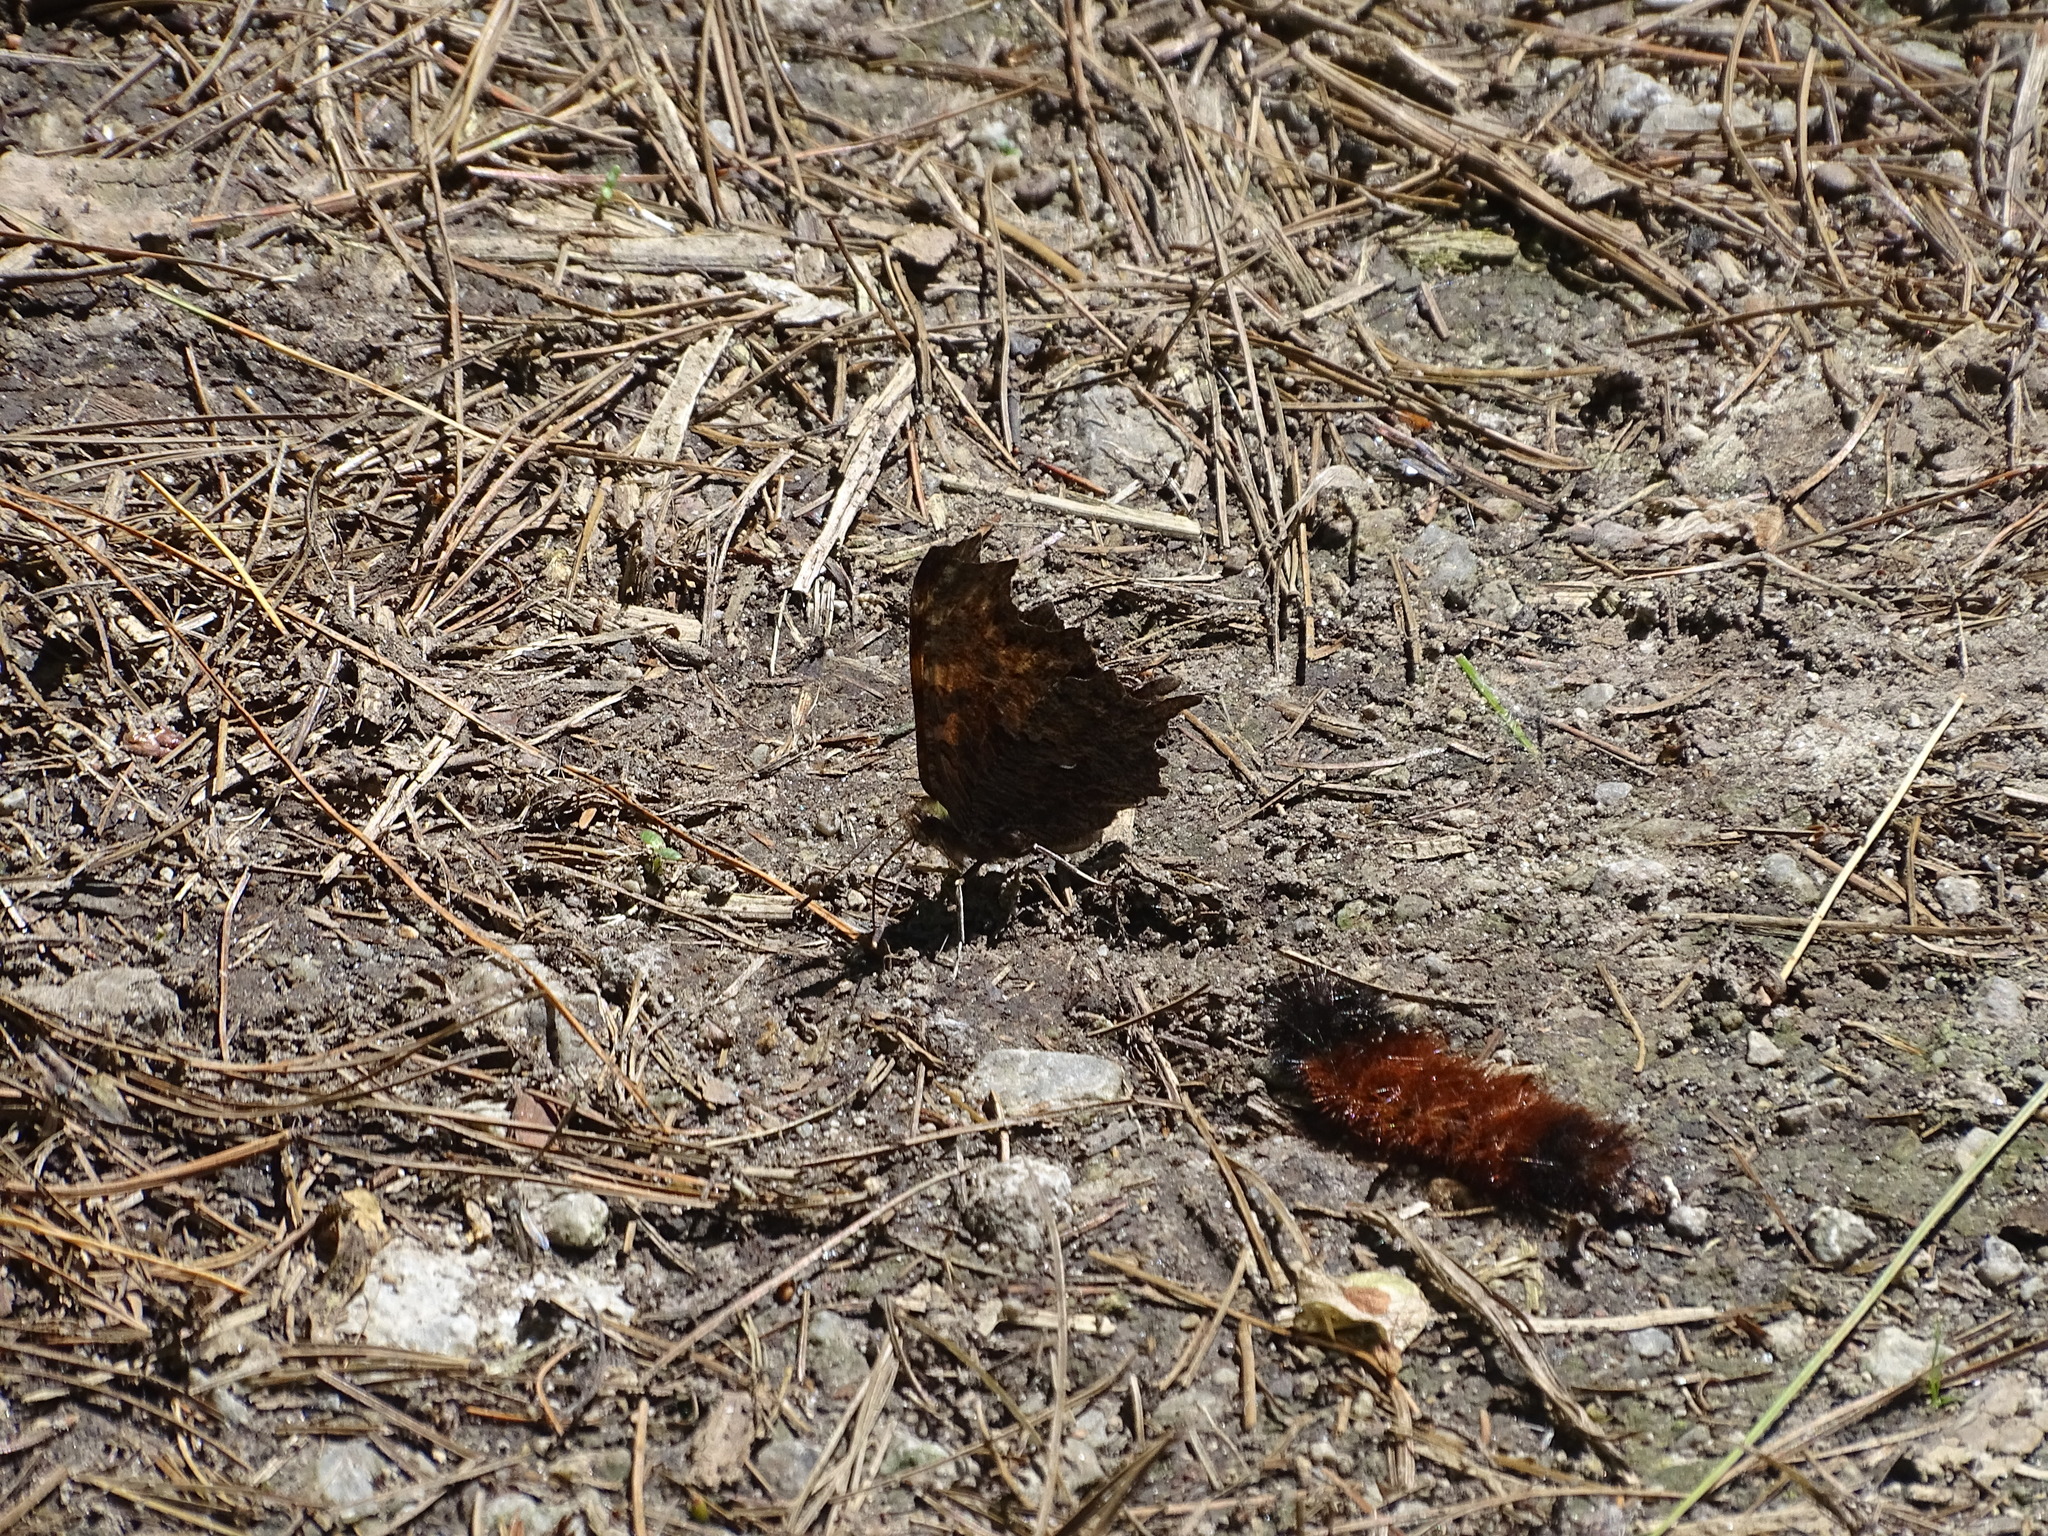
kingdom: Animalia
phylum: Arthropoda
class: Insecta
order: Lepidoptera
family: Nymphalidae
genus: Polygonia
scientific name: Polygonia progne
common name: Gray comma
